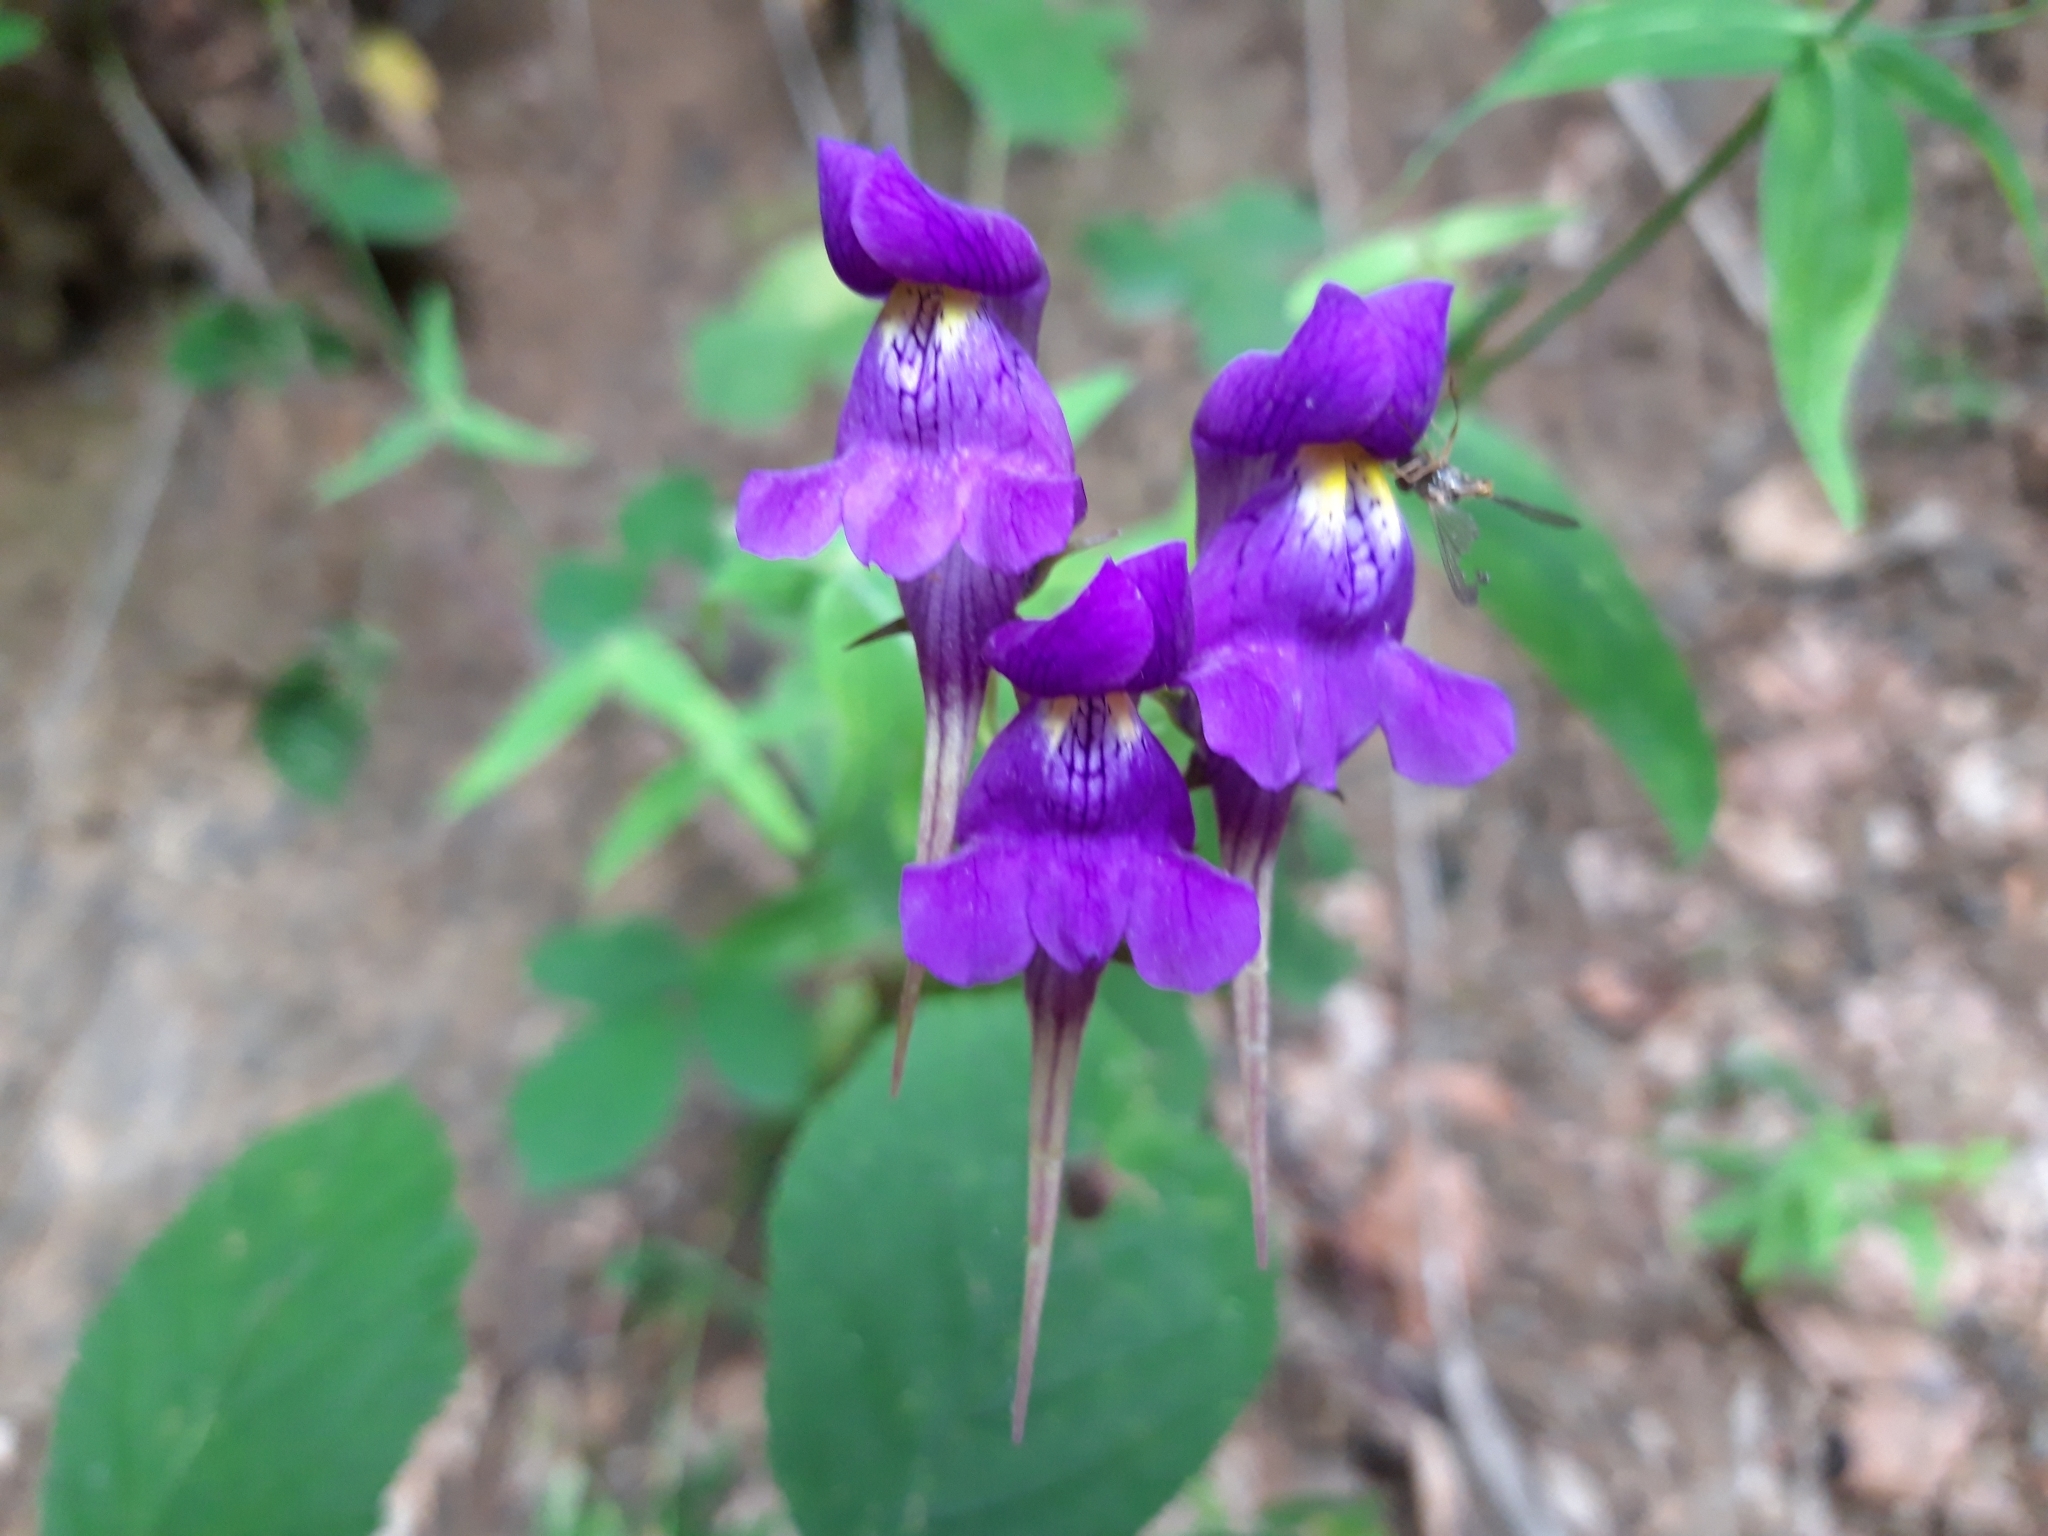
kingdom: Plantae
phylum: Tracheophyta
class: Magnoliopsida
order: Lamiales
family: Plantaginaceae
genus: Linaria
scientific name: Linaria triornithophora
